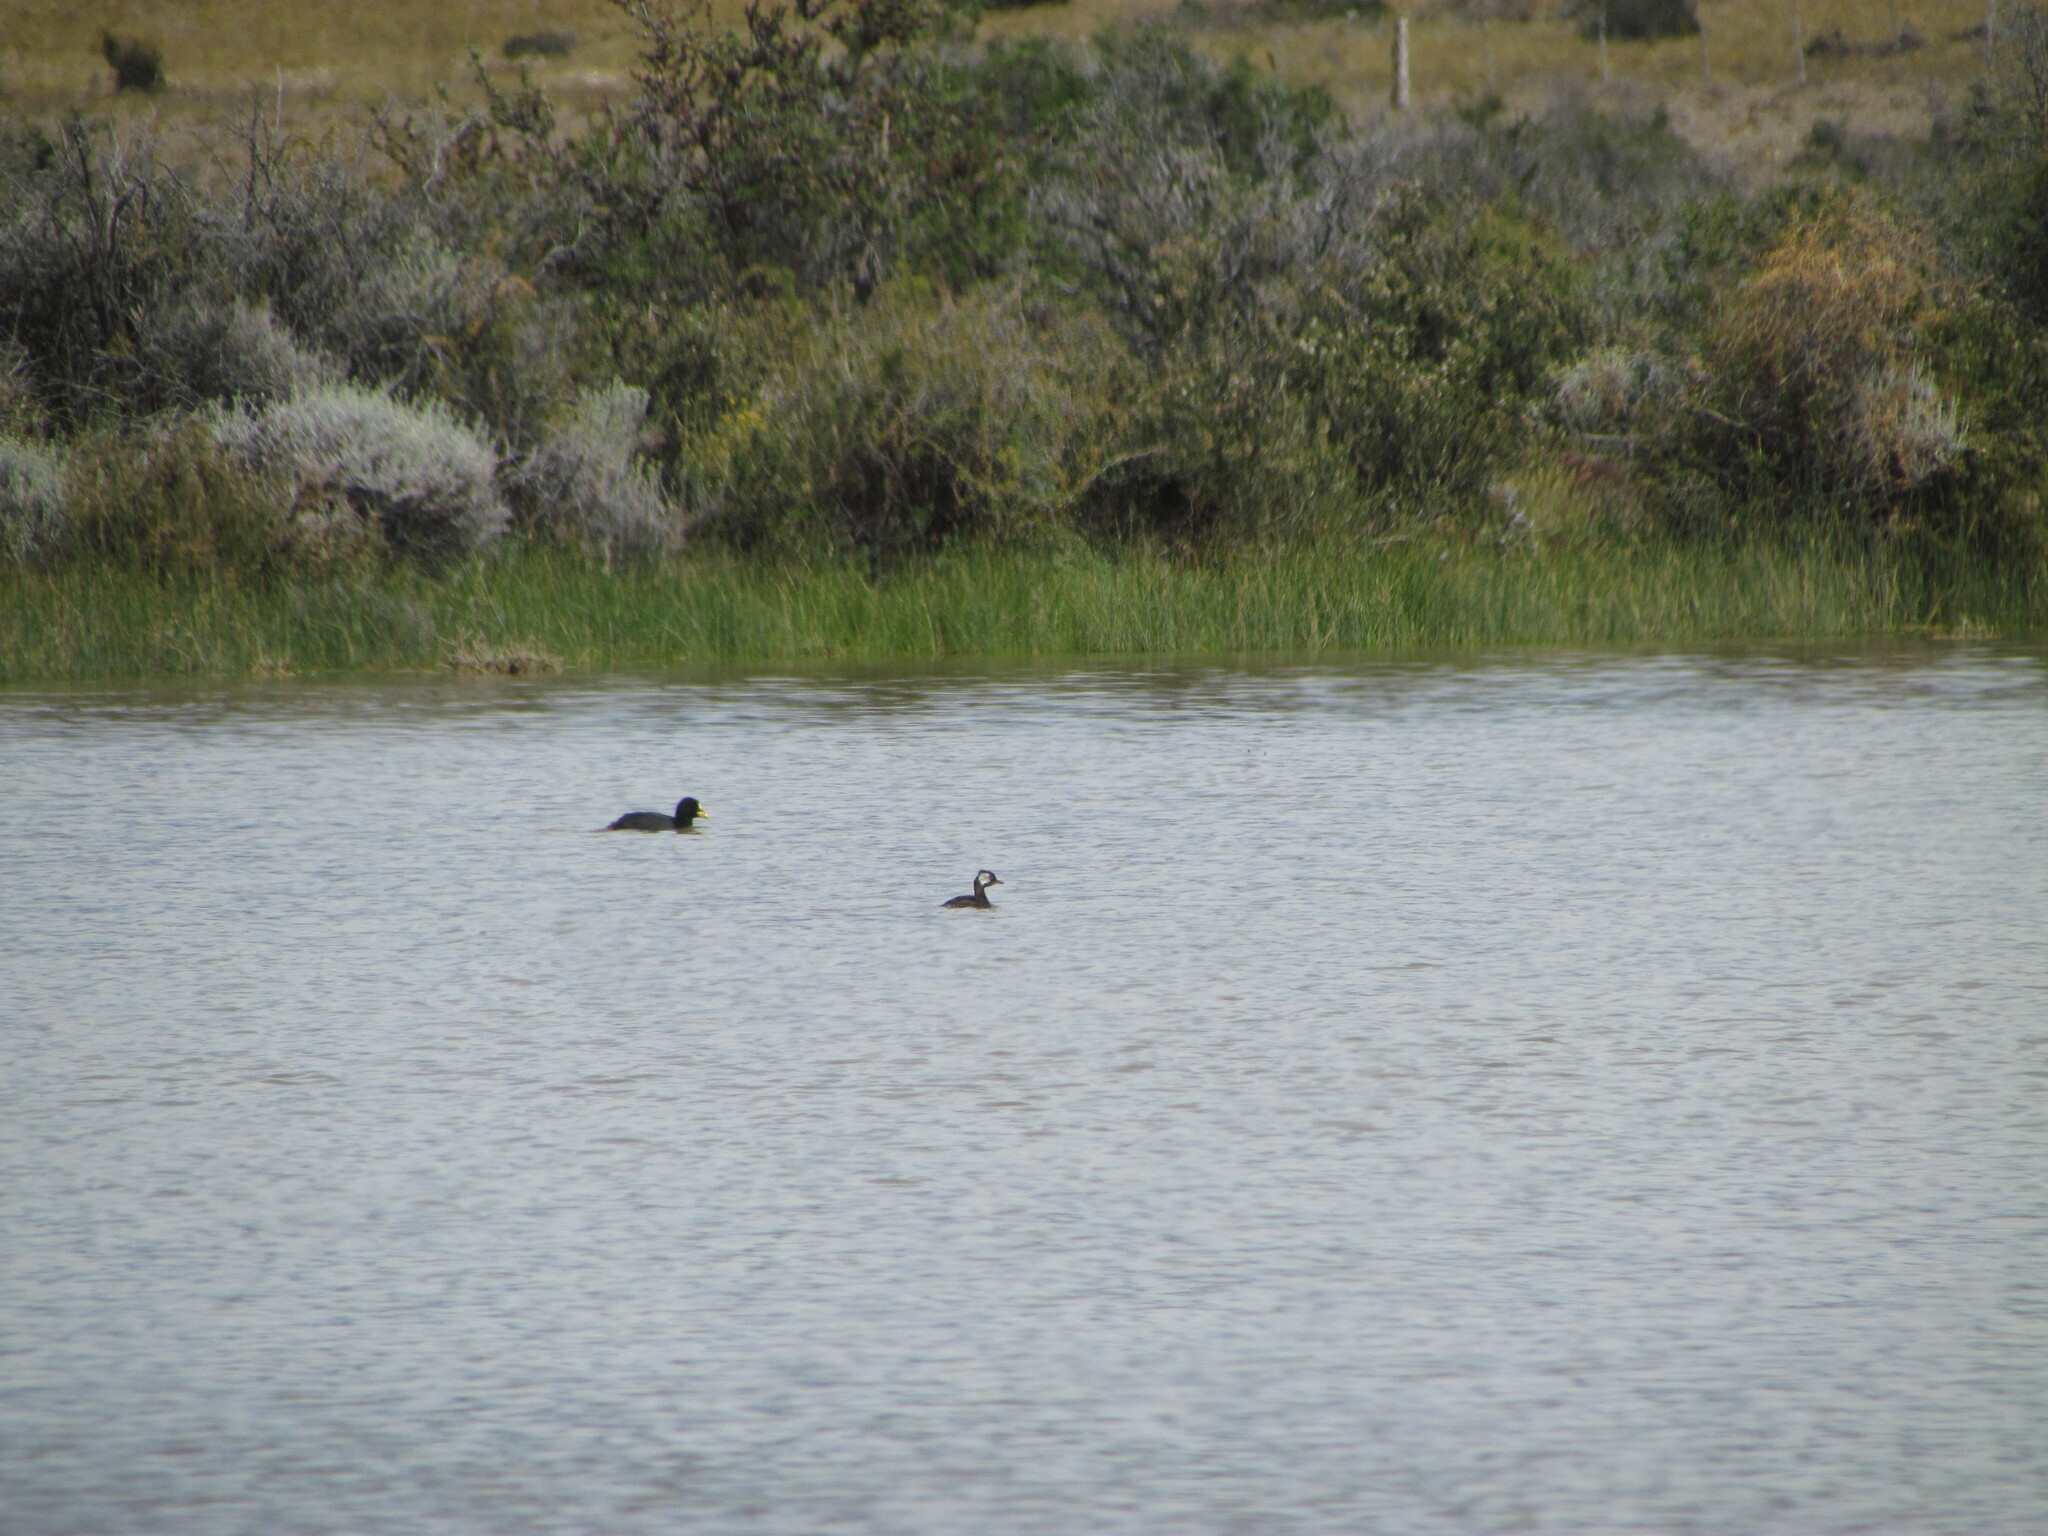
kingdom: Animalia
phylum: Chordata
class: Aves
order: Gruiformes
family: Rallidae
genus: Fulica
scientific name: Fulica armillata
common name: Red-gartered coot
